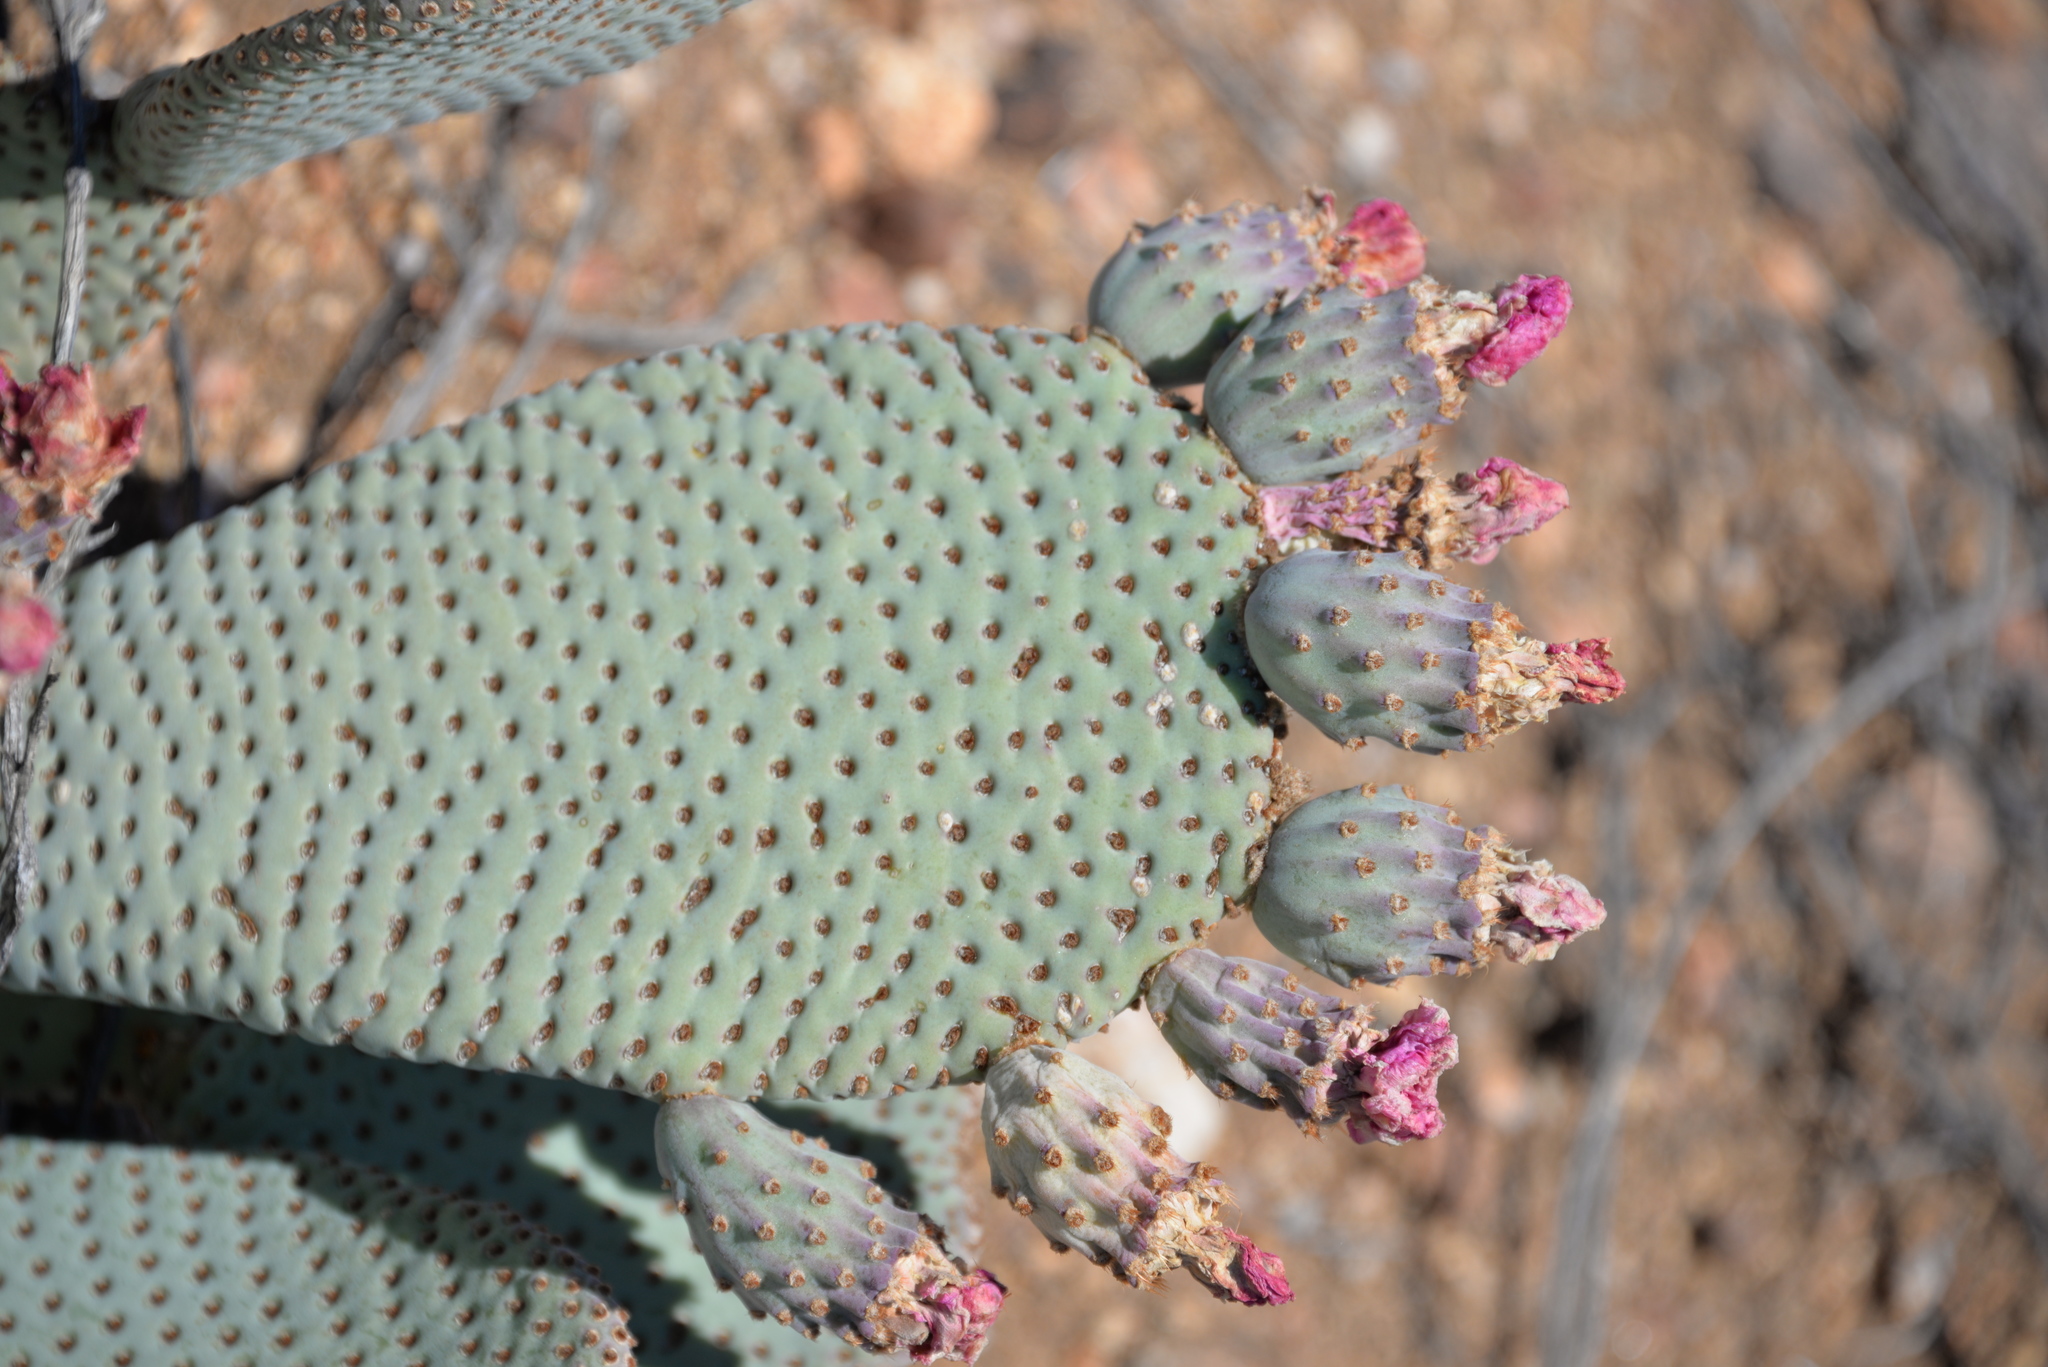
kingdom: Plantae
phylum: Tracheophyta
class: Magnoliopsida
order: Caryophyllales
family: Cactaceae
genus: Opuntia
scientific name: Opuntia basilaris
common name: Beavertail prickly-pear
